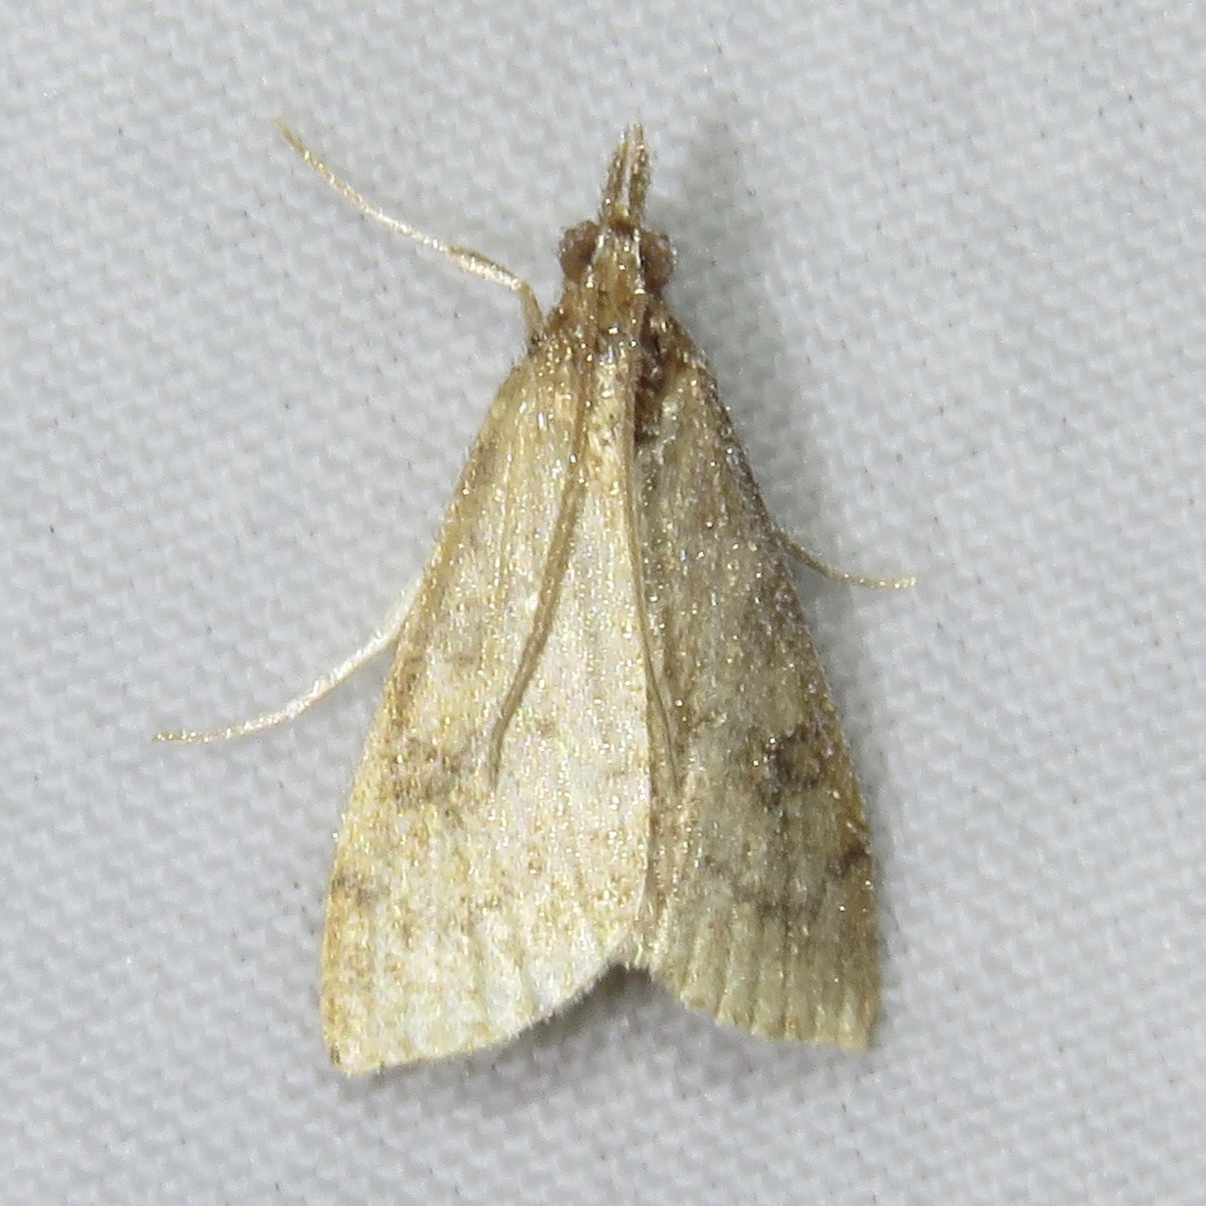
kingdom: Animalia
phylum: Arthropoda
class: Insecta
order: Lepidoptera
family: Crambidae
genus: Udea
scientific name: Udea rubigalis
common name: Celery leaftier moth
